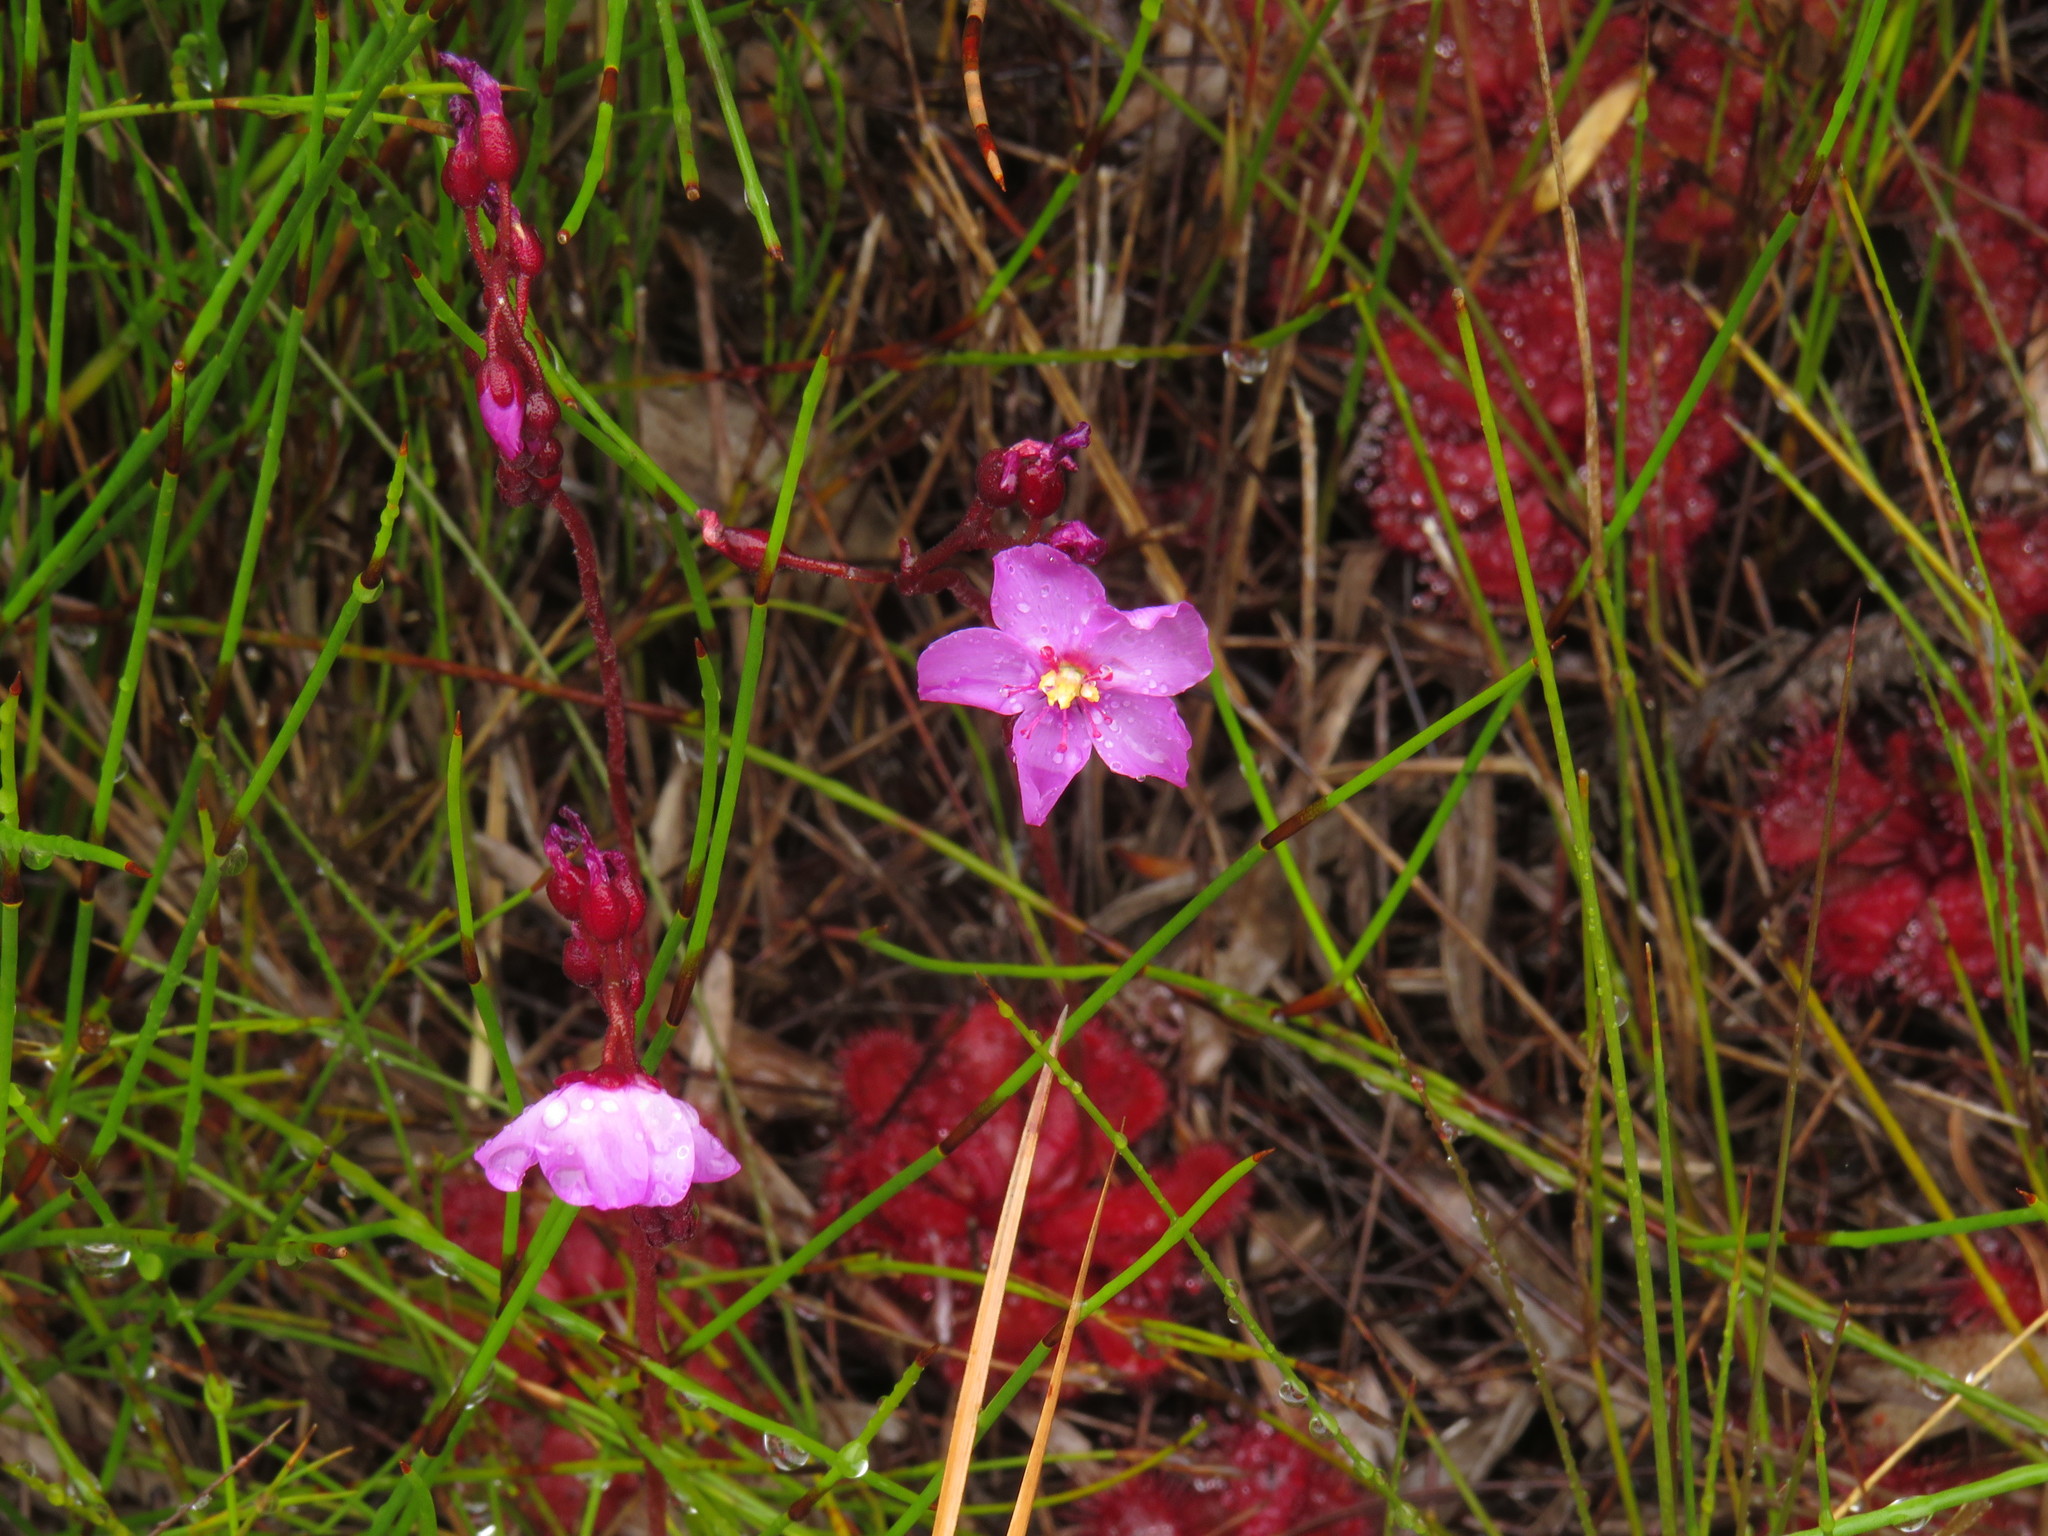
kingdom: Plantae
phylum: Tracheophyta
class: Magnoliopsida
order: Caryophyllales
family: Droseraceae
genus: Drosera
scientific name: Drosera slackii
